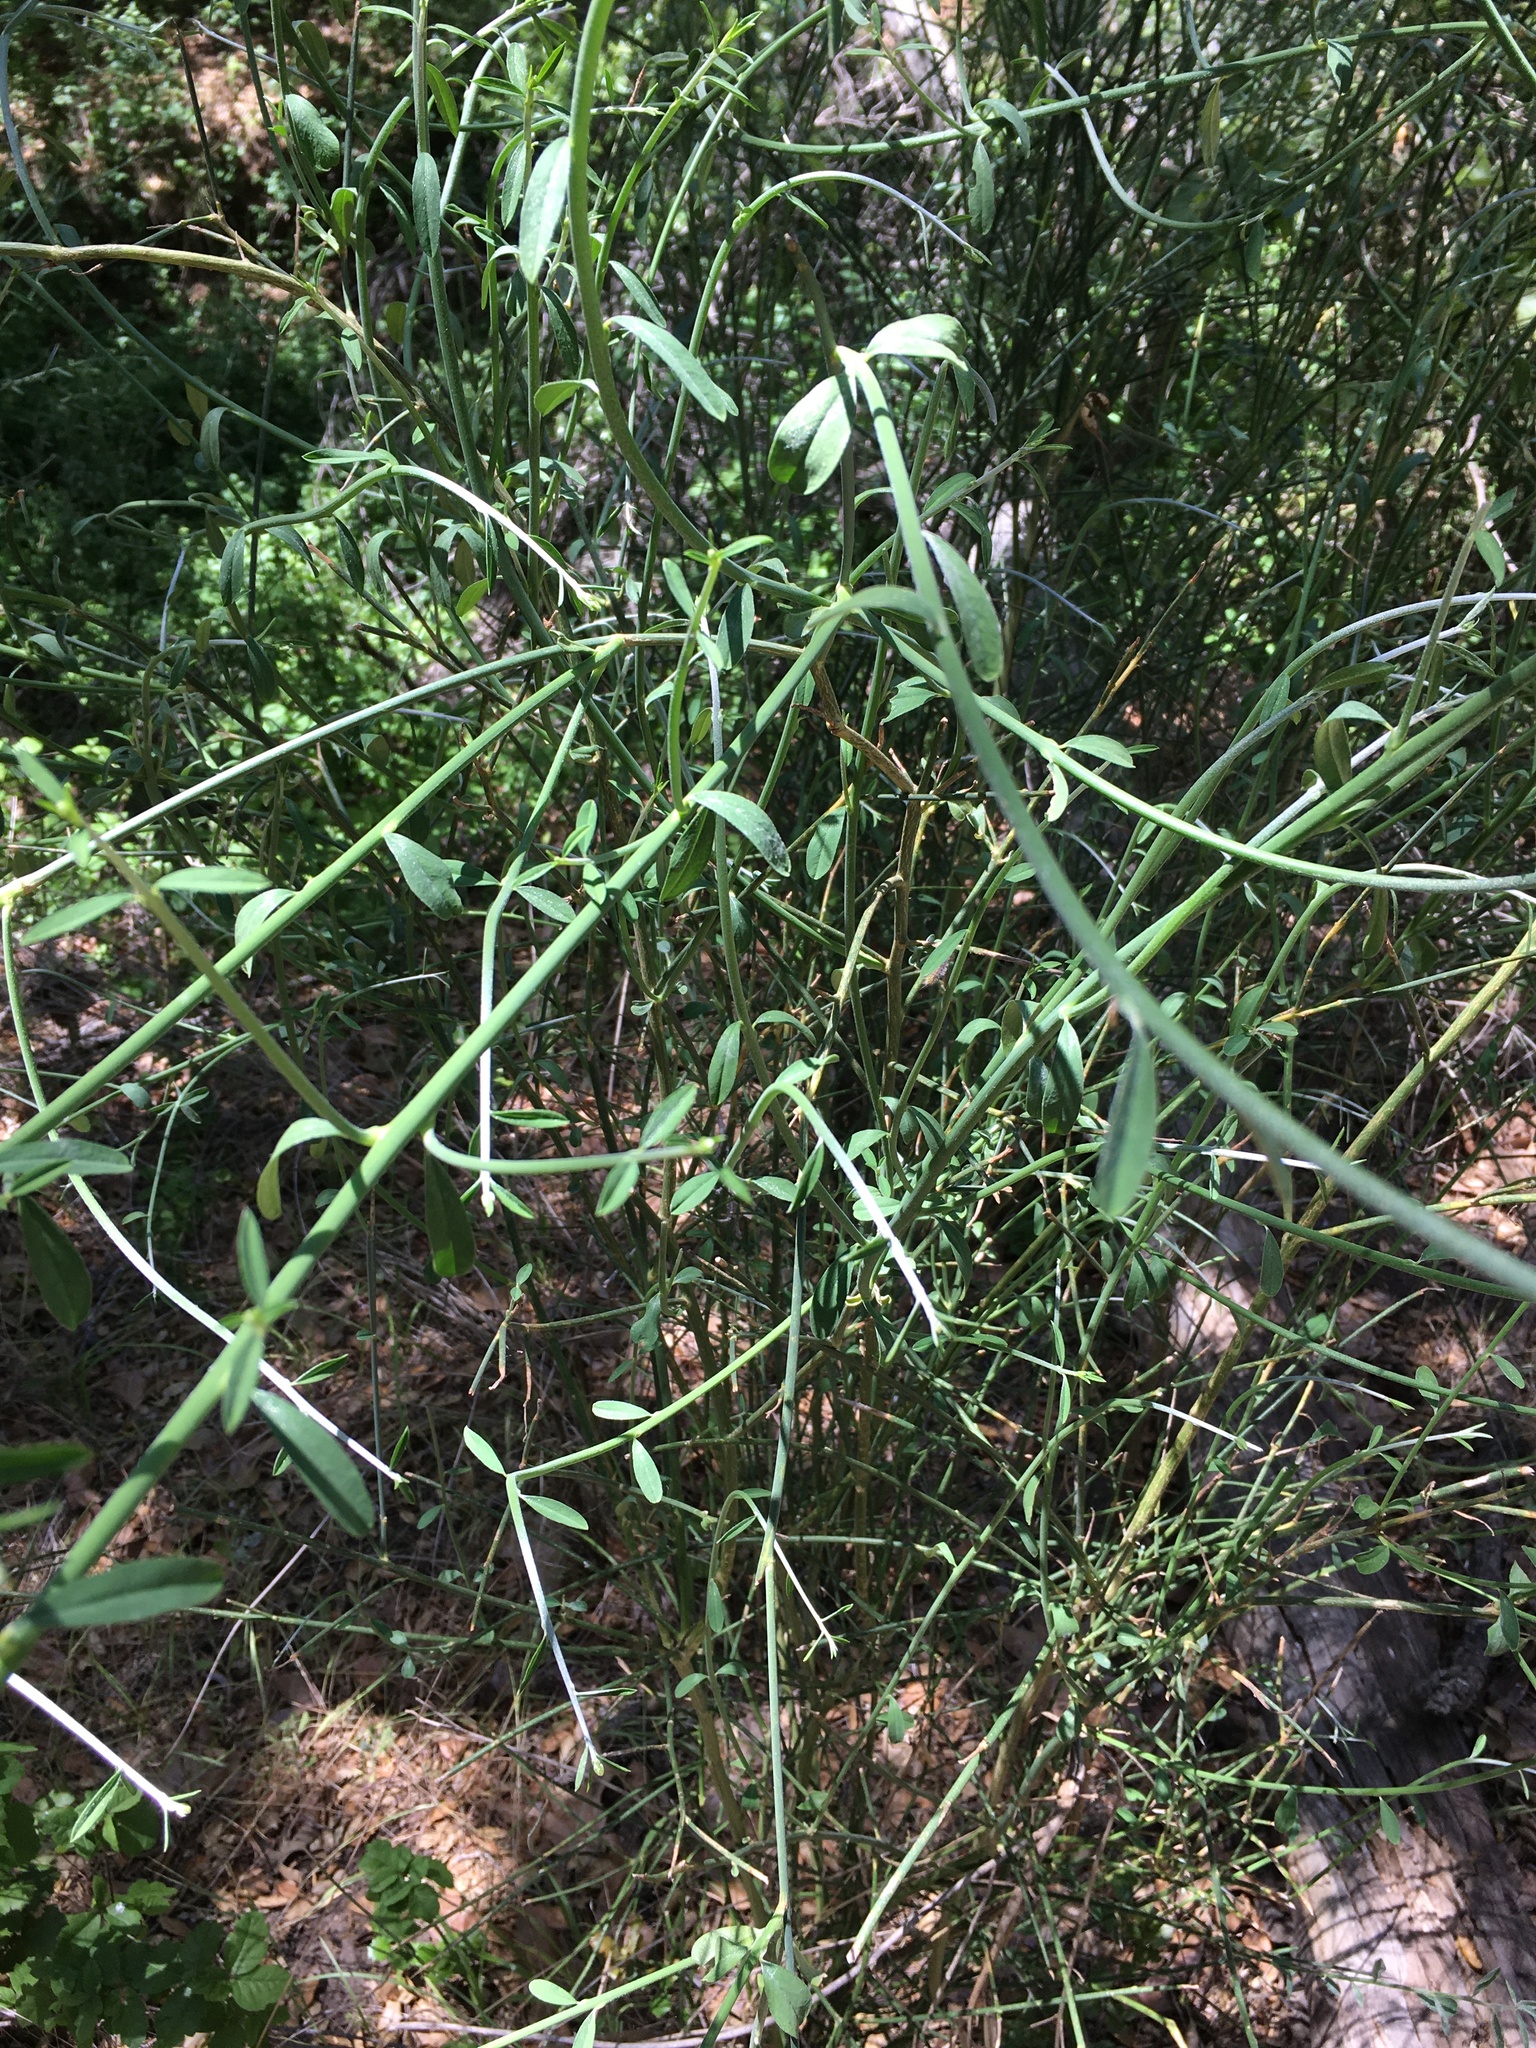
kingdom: Plantae
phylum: Tracheophyta
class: Magnoliopsida
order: Fabales
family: Fabaceae
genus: Spartium
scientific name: Spartium junceum
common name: Spanish broom
